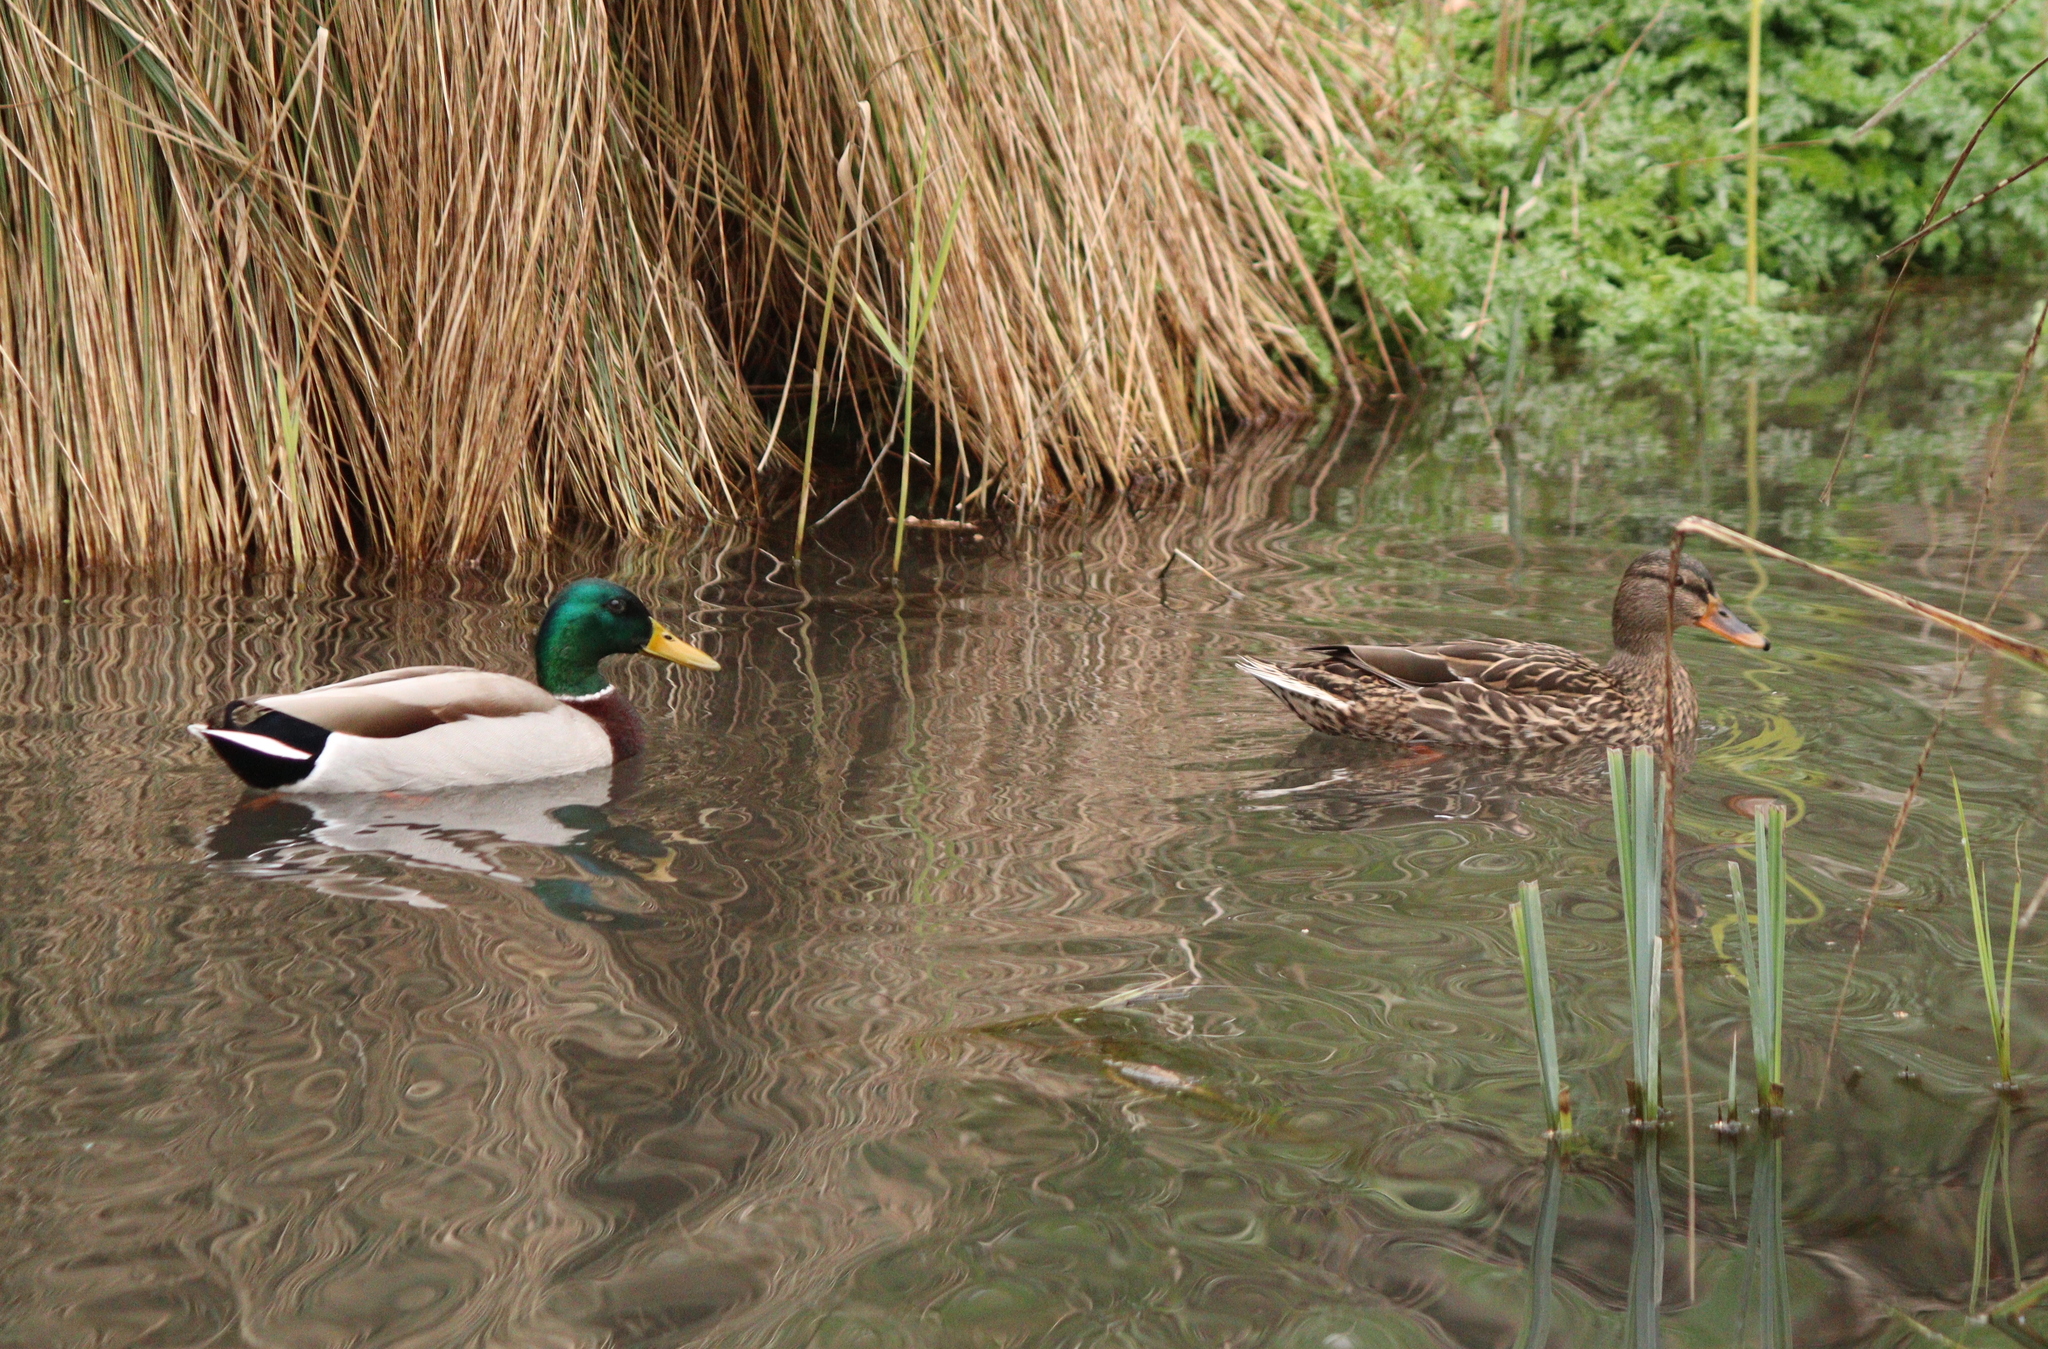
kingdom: Animalia
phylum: Chordata
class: Aves
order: Anseriformes
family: Anatidae
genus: Anas
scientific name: Anas platyrhynchos
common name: Mallard
